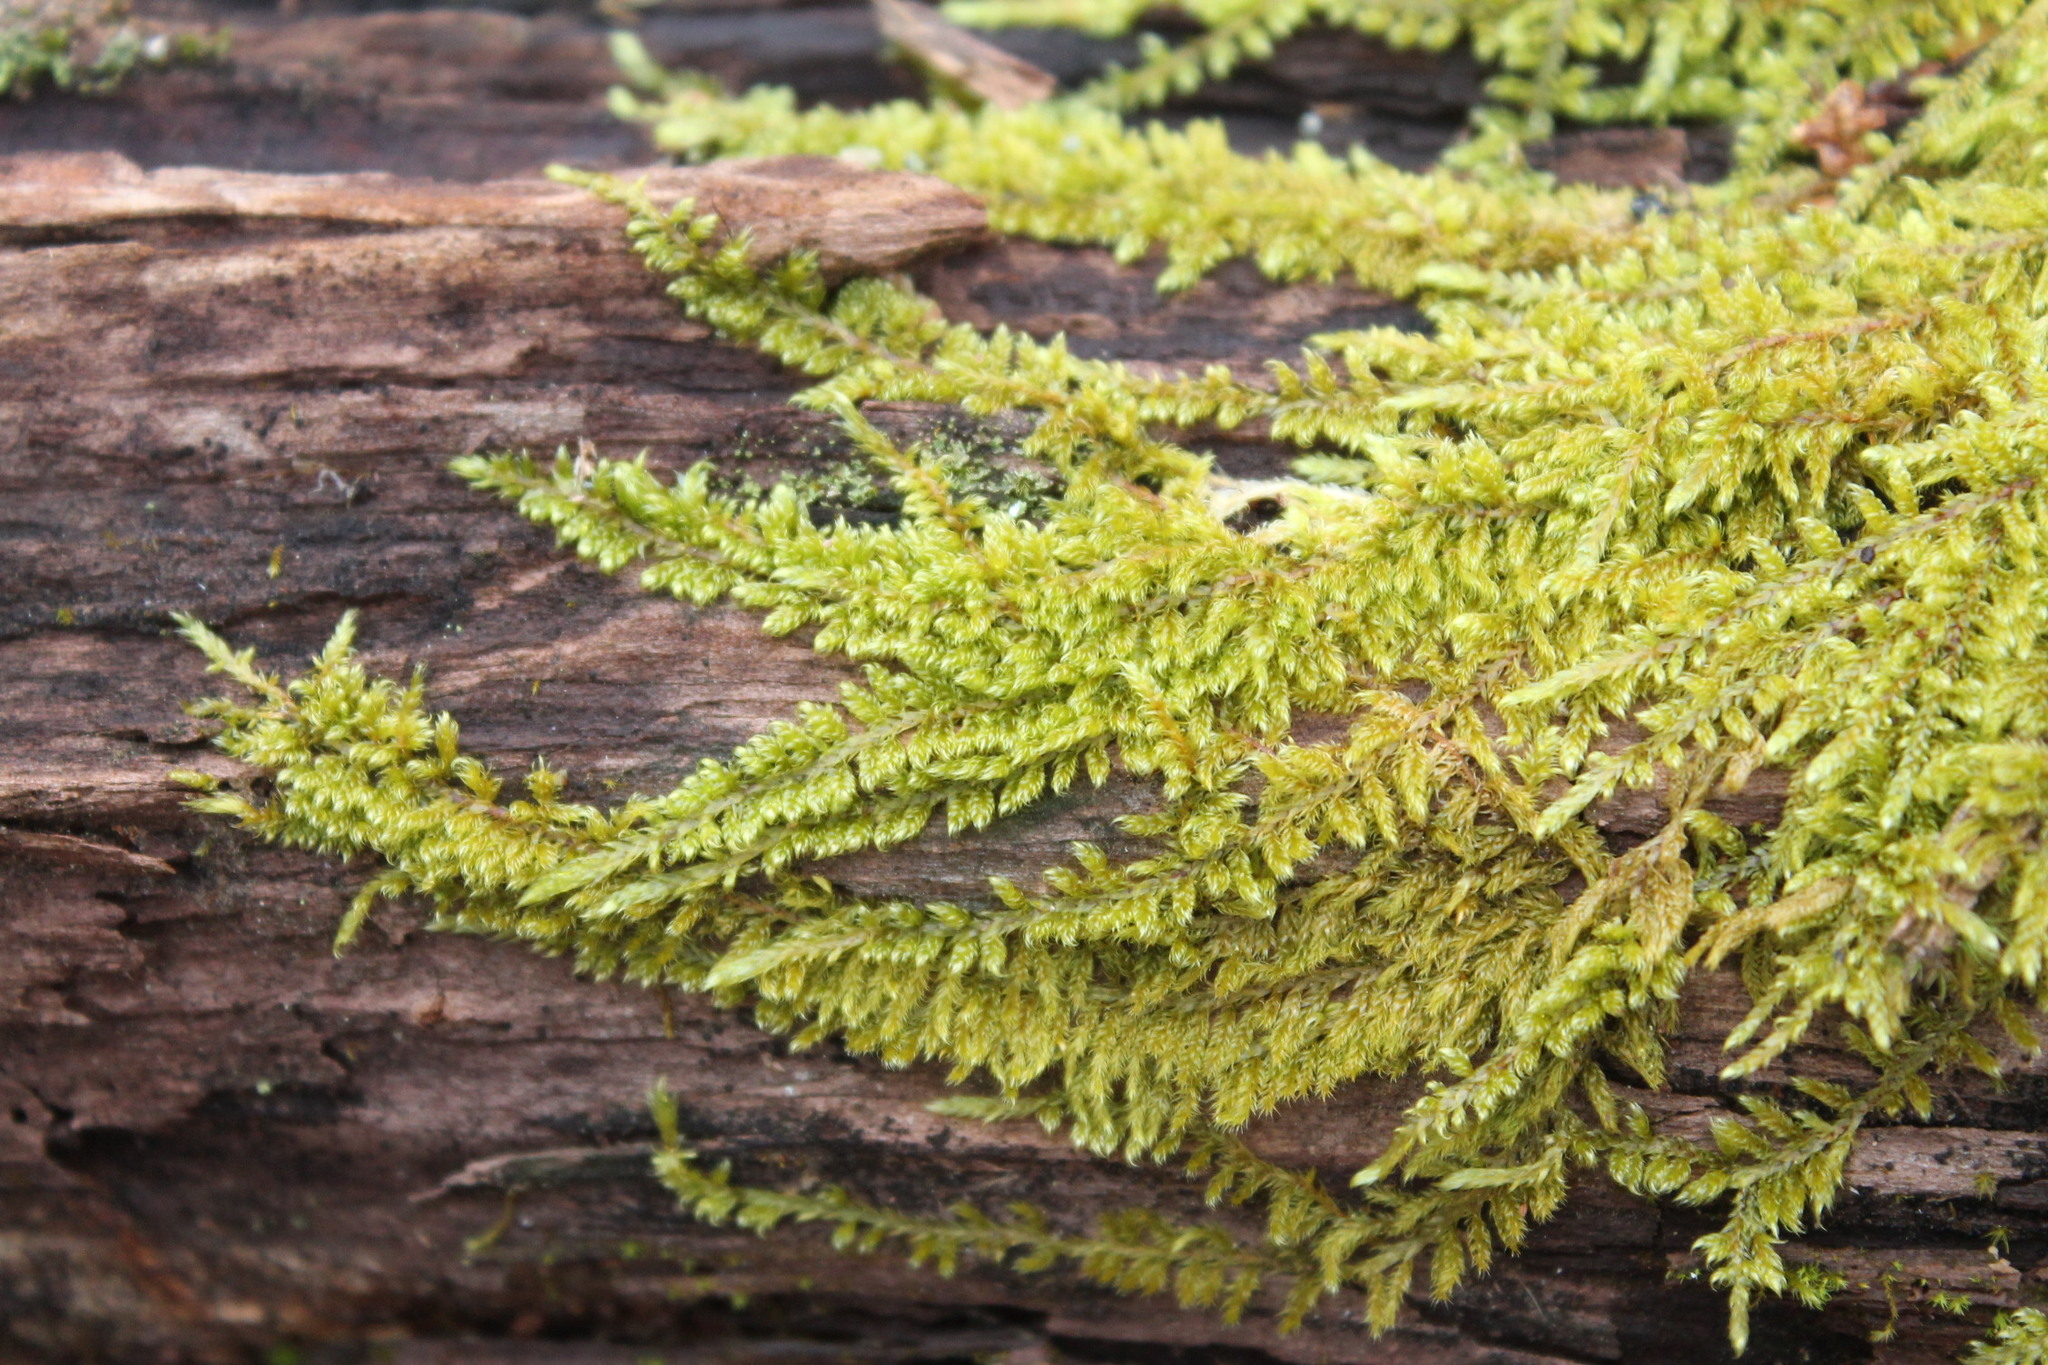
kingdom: Plantae
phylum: Bryophyta
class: Bryopsida
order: Hypnales
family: Callicladiaceae
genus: Callicladium
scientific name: Callicladium imponens
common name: Brocade moss
